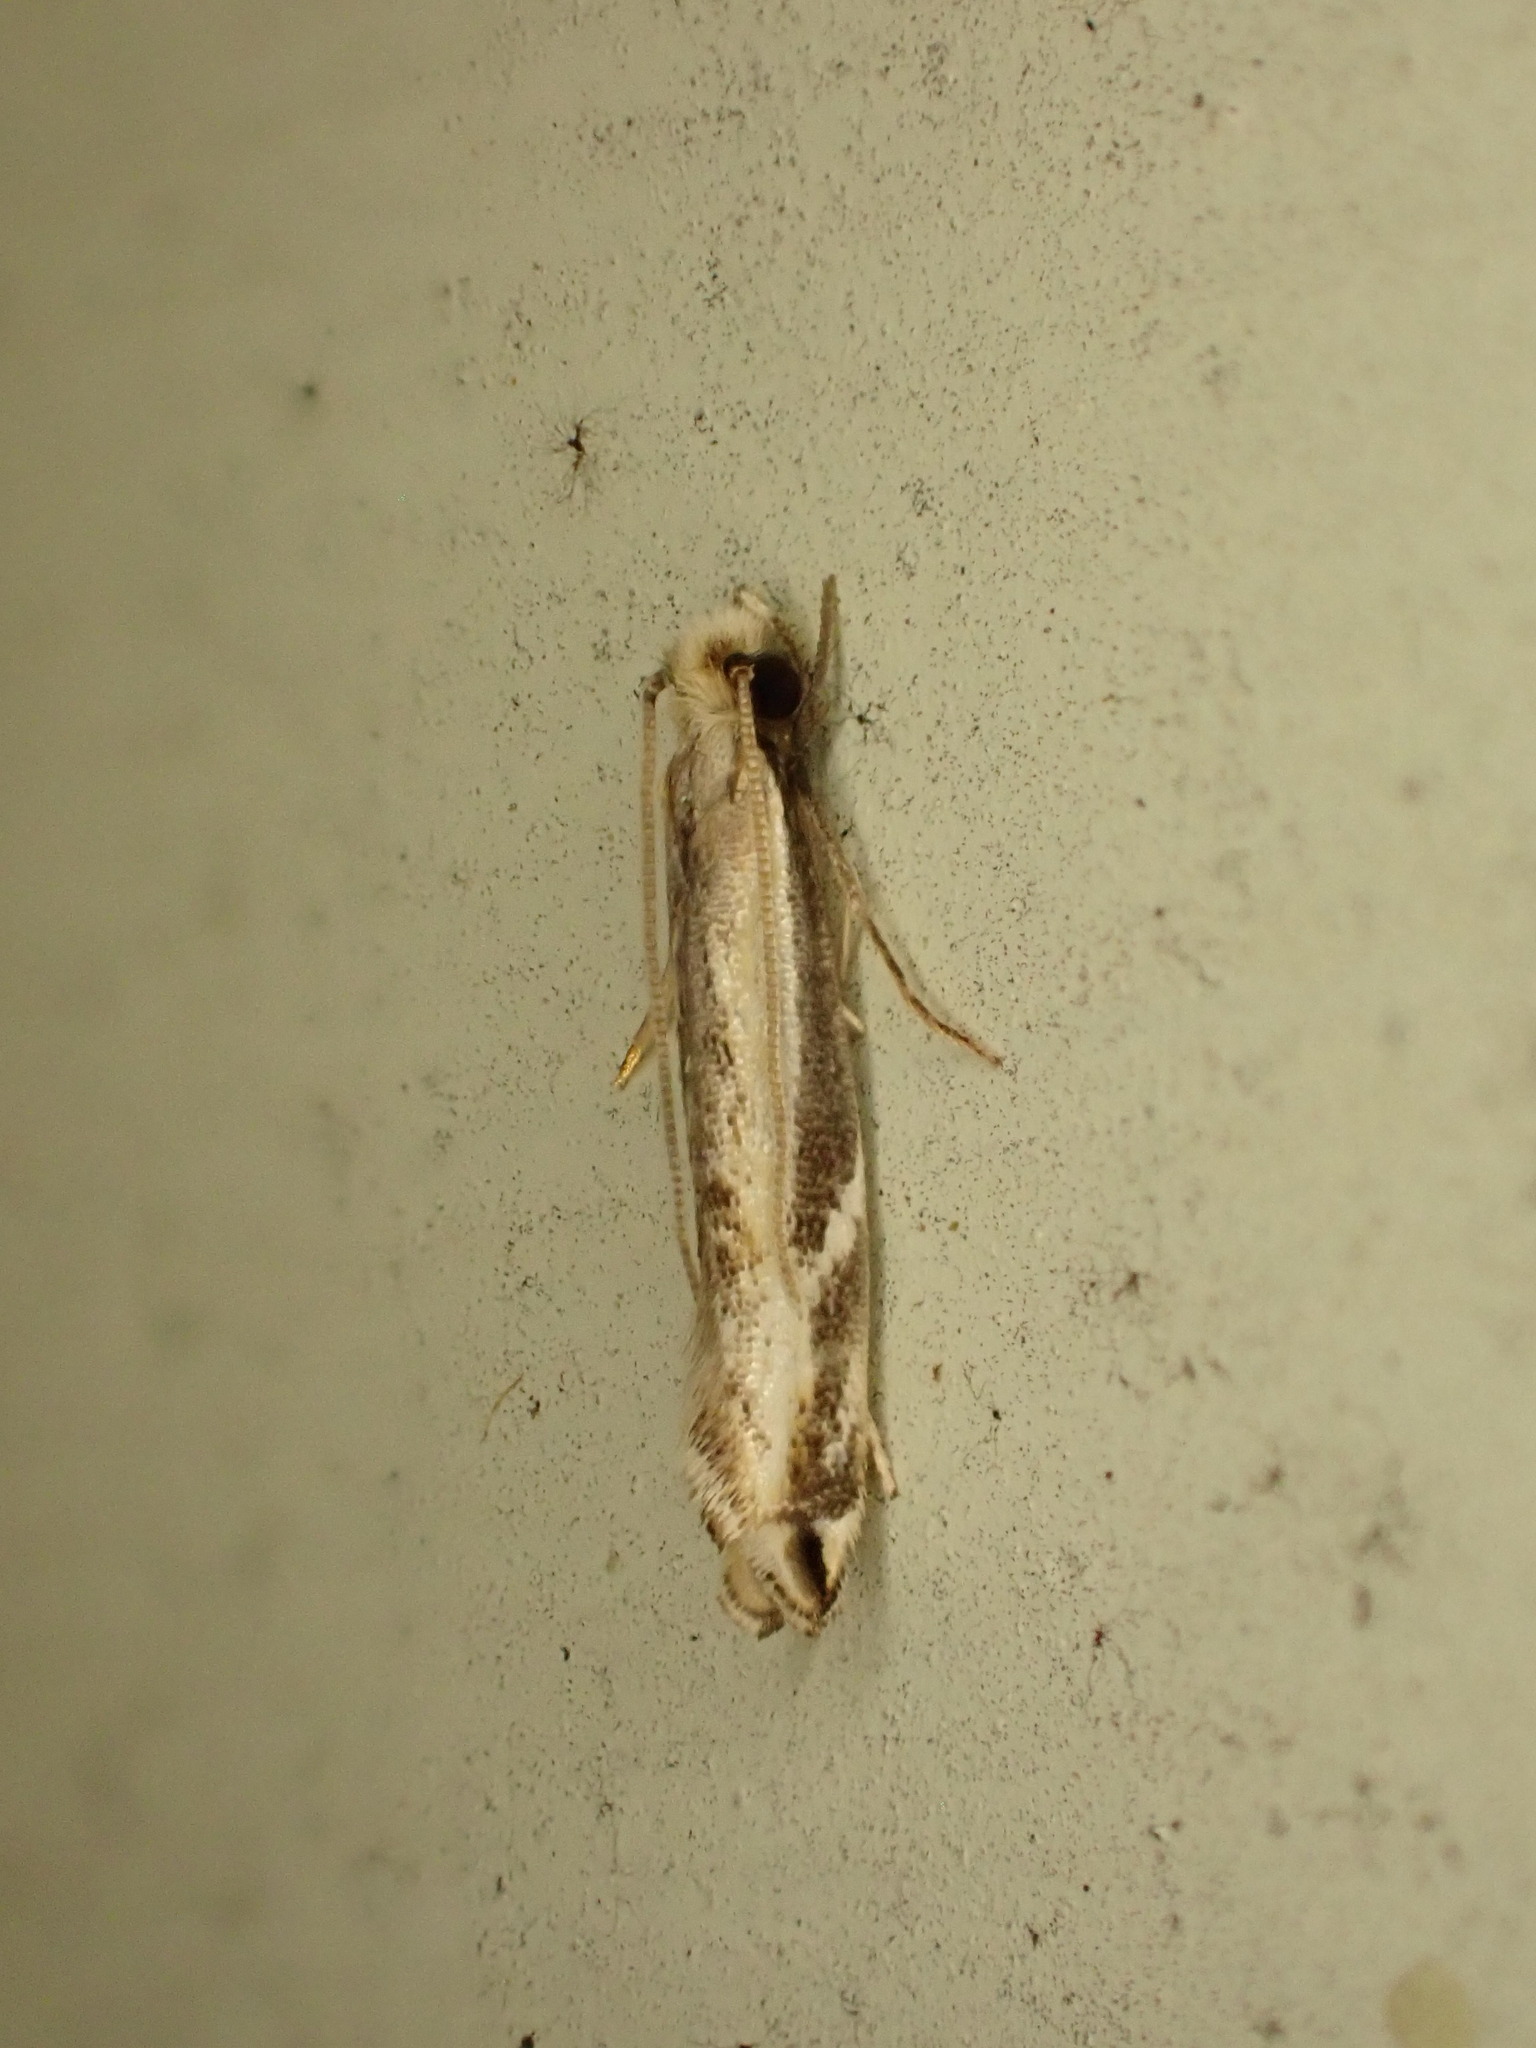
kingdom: Animalia
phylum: Arthropoda
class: Insecta
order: Lepidoptera
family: Tineidae
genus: Erechthias
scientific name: Erechthias terminella
